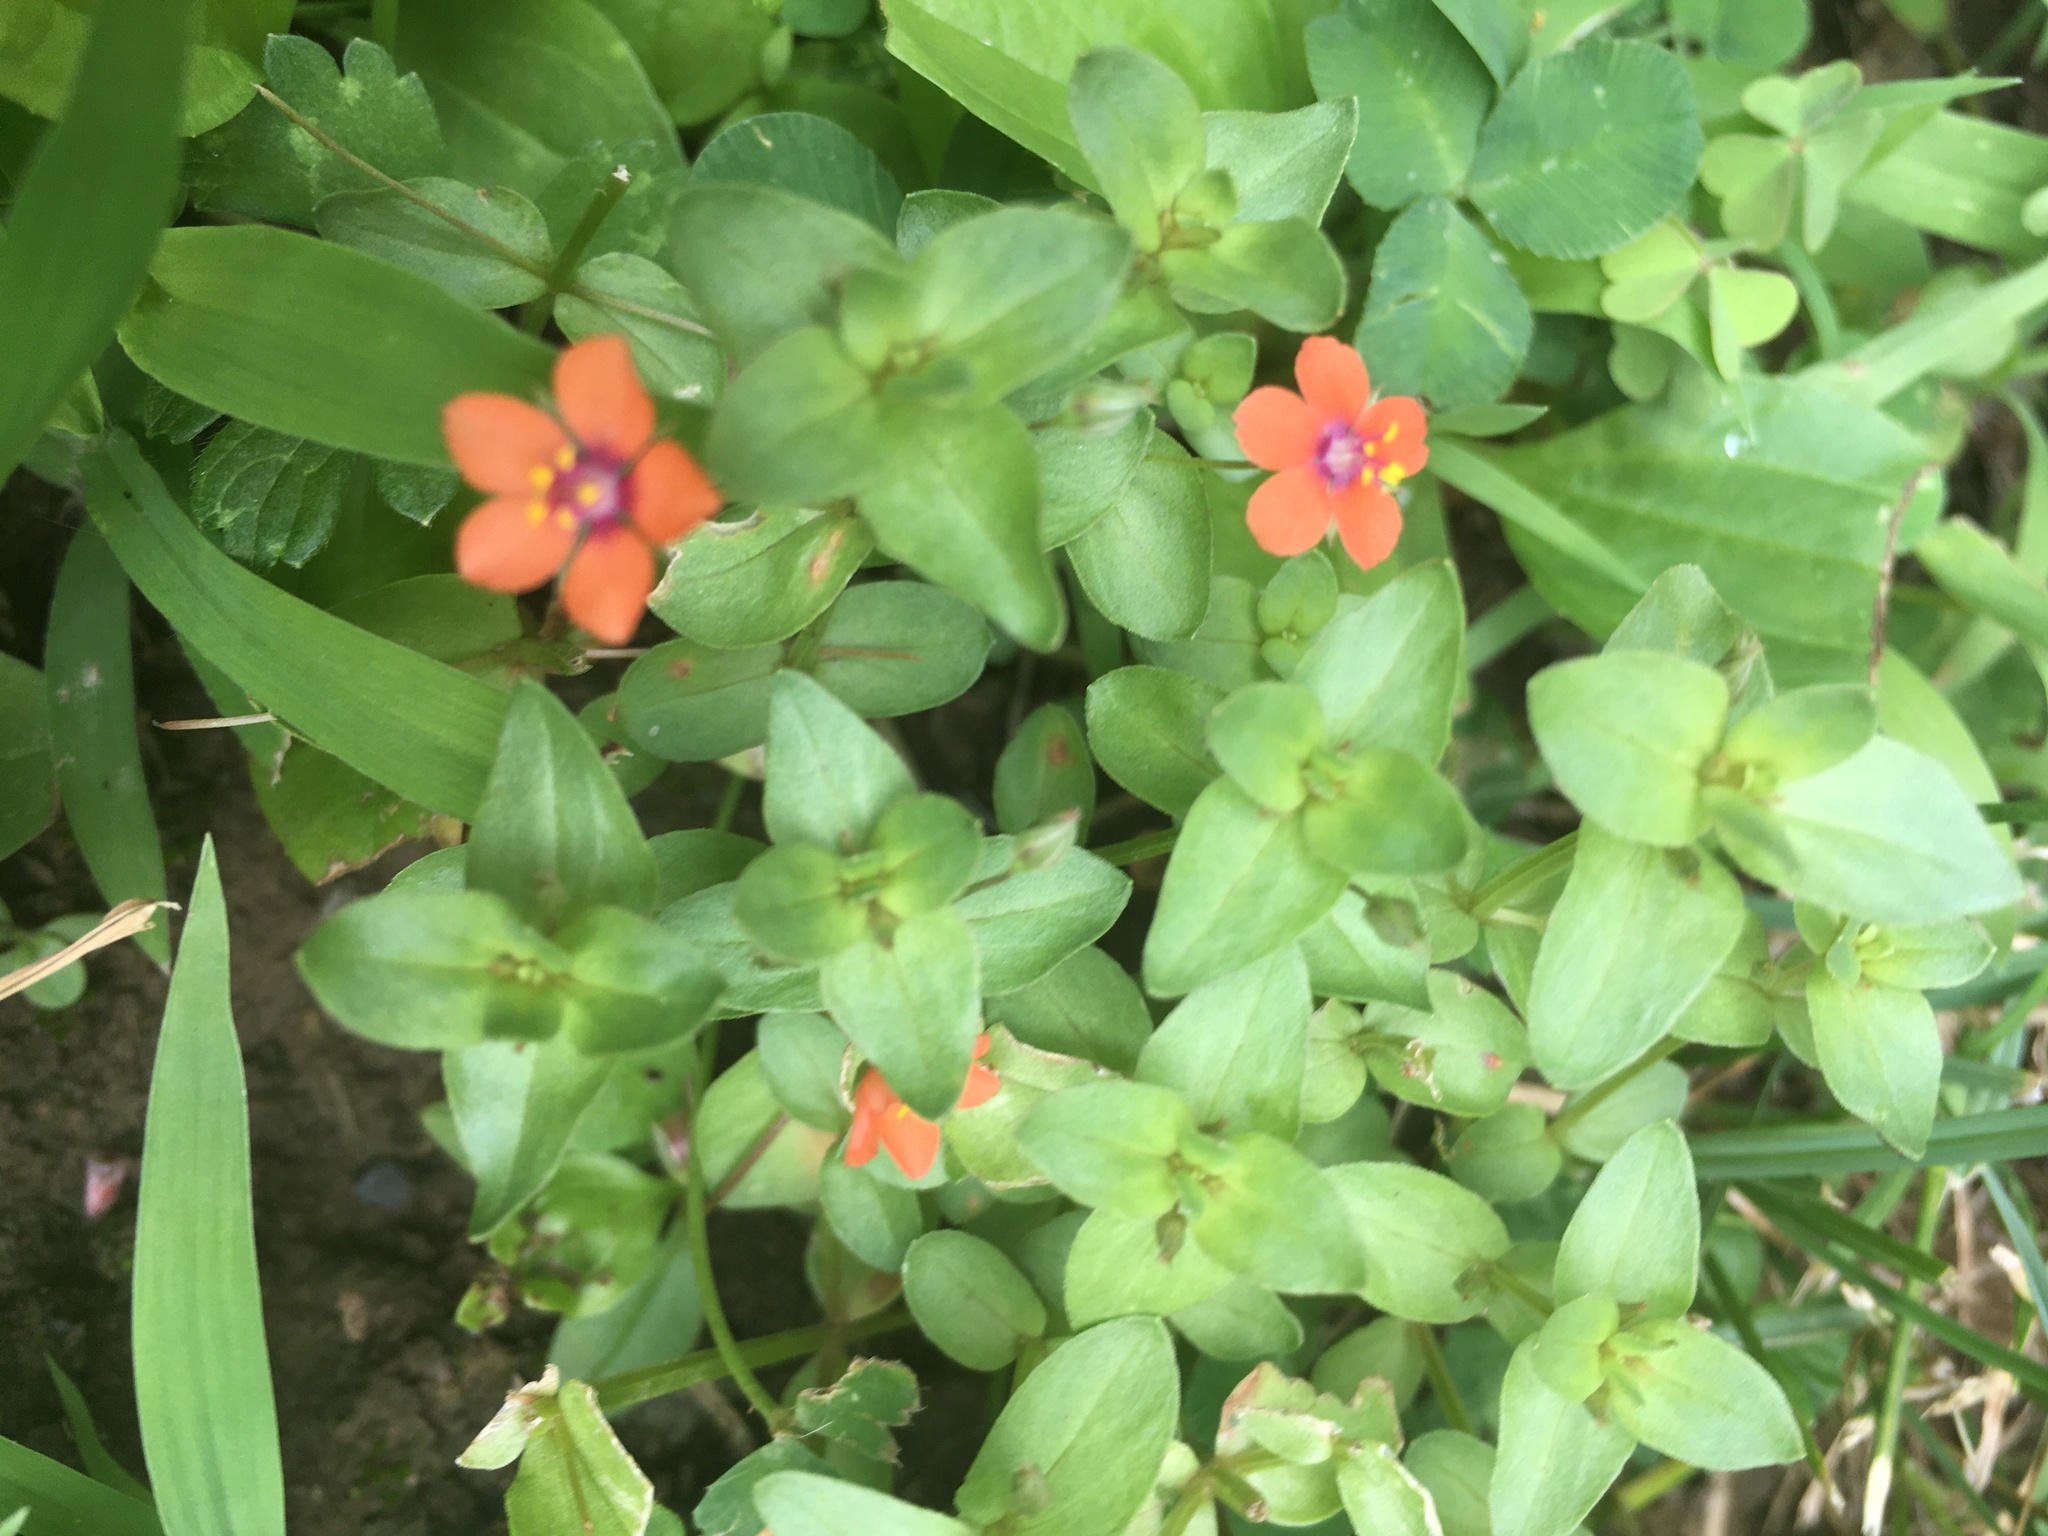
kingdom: Plantae
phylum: Tracheophyta
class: Magnoliopsida
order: Ericales
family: Primulaceae
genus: Lysimachia
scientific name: Lysimachia arvensis
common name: Scarlet pimpernel
